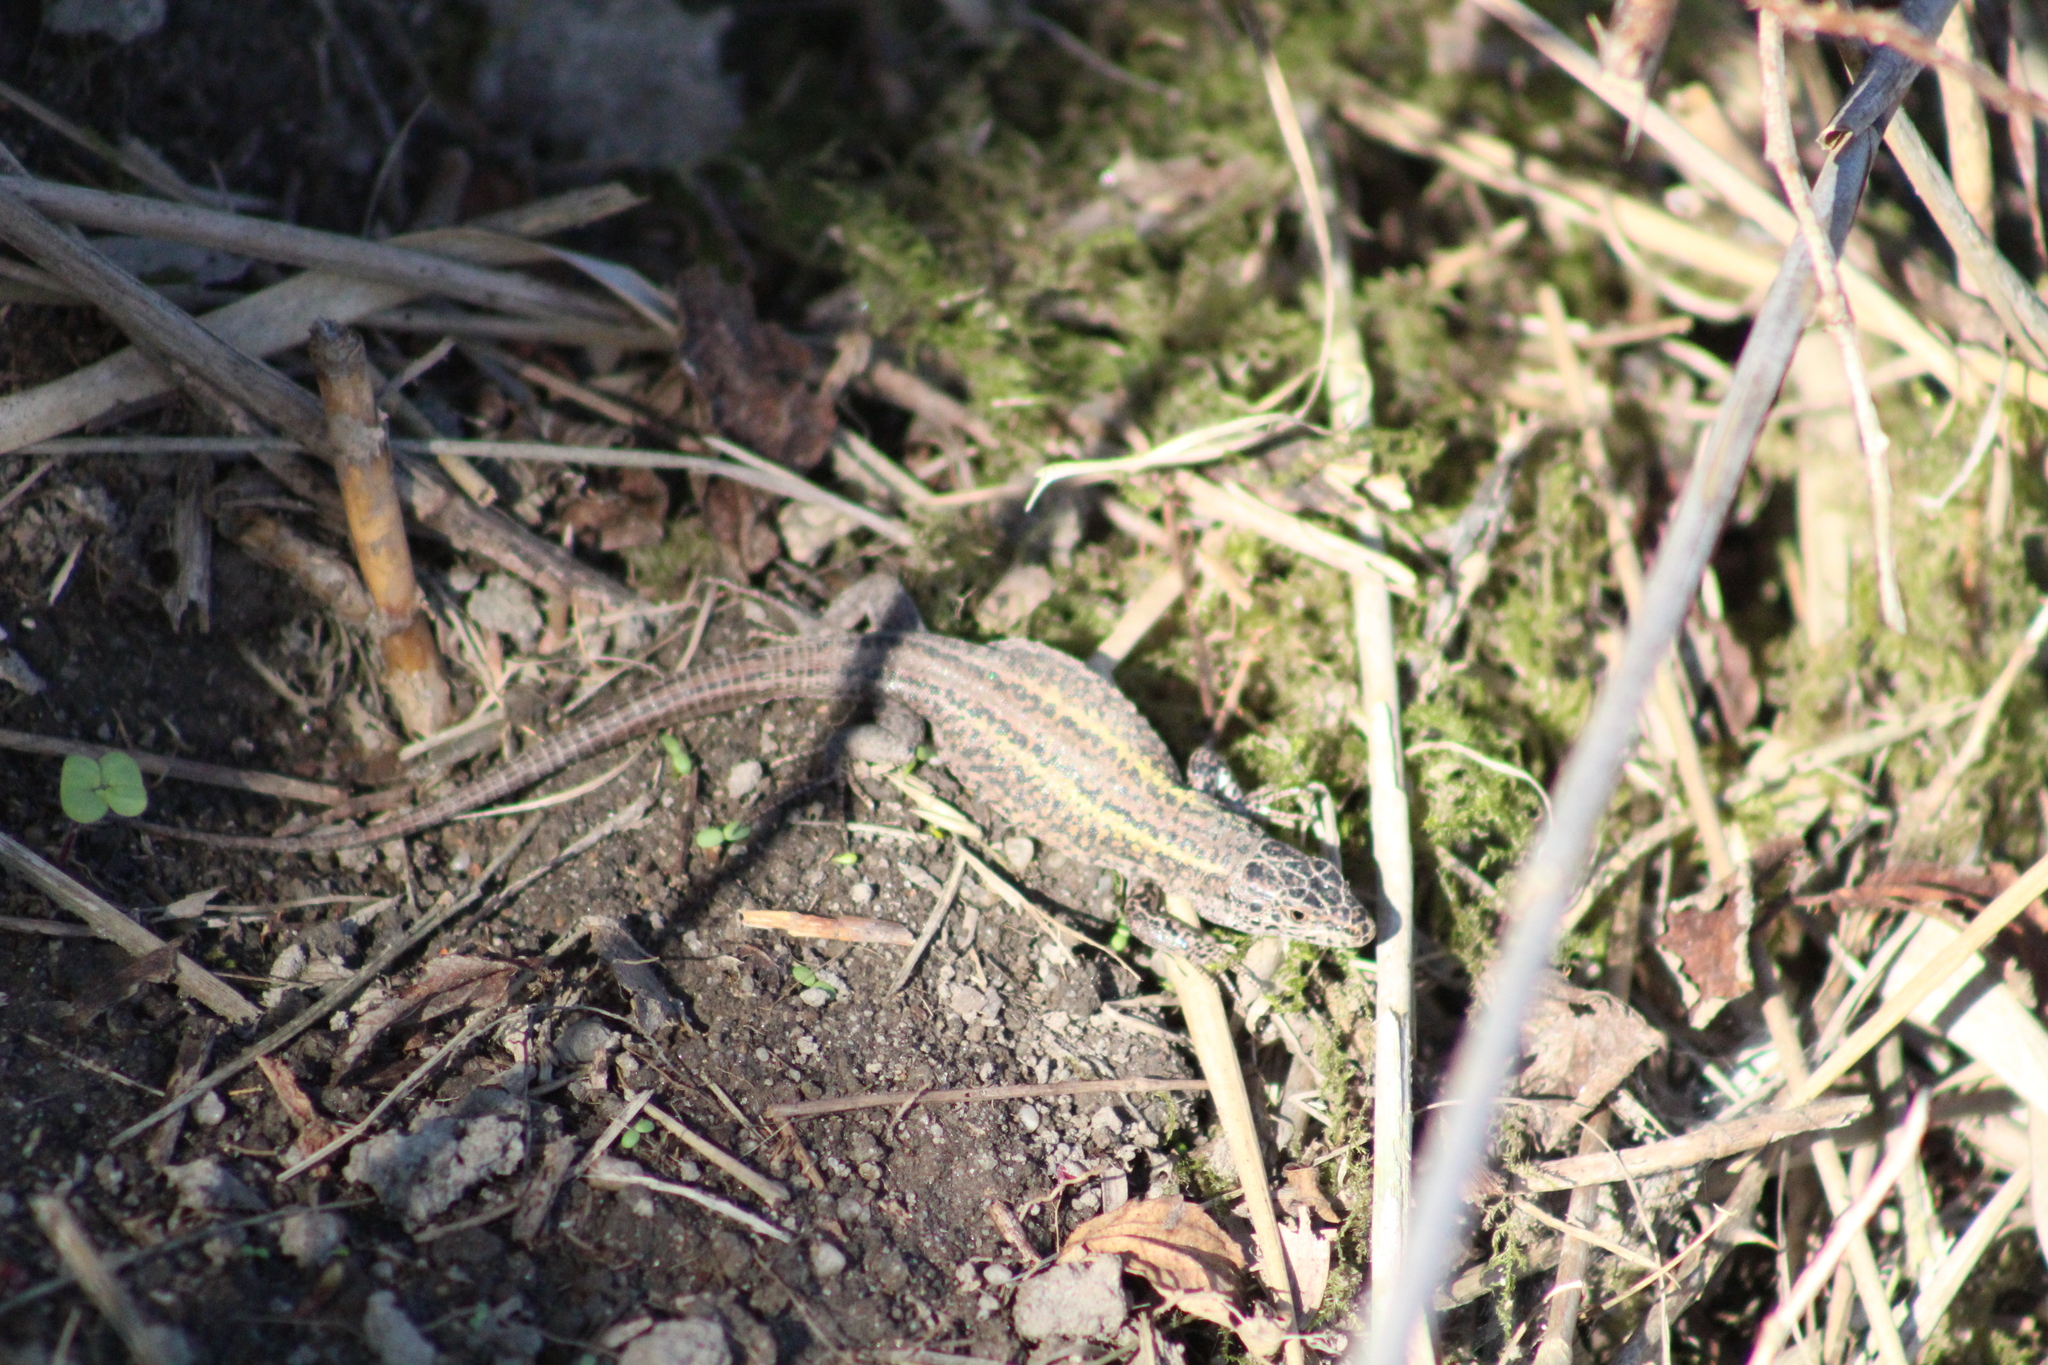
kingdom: Animalia
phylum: Chordata
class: Squamata
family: Lacertidae
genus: Podarcis
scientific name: Podarcis carbonelli
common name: Carbonelli's wall lizard
